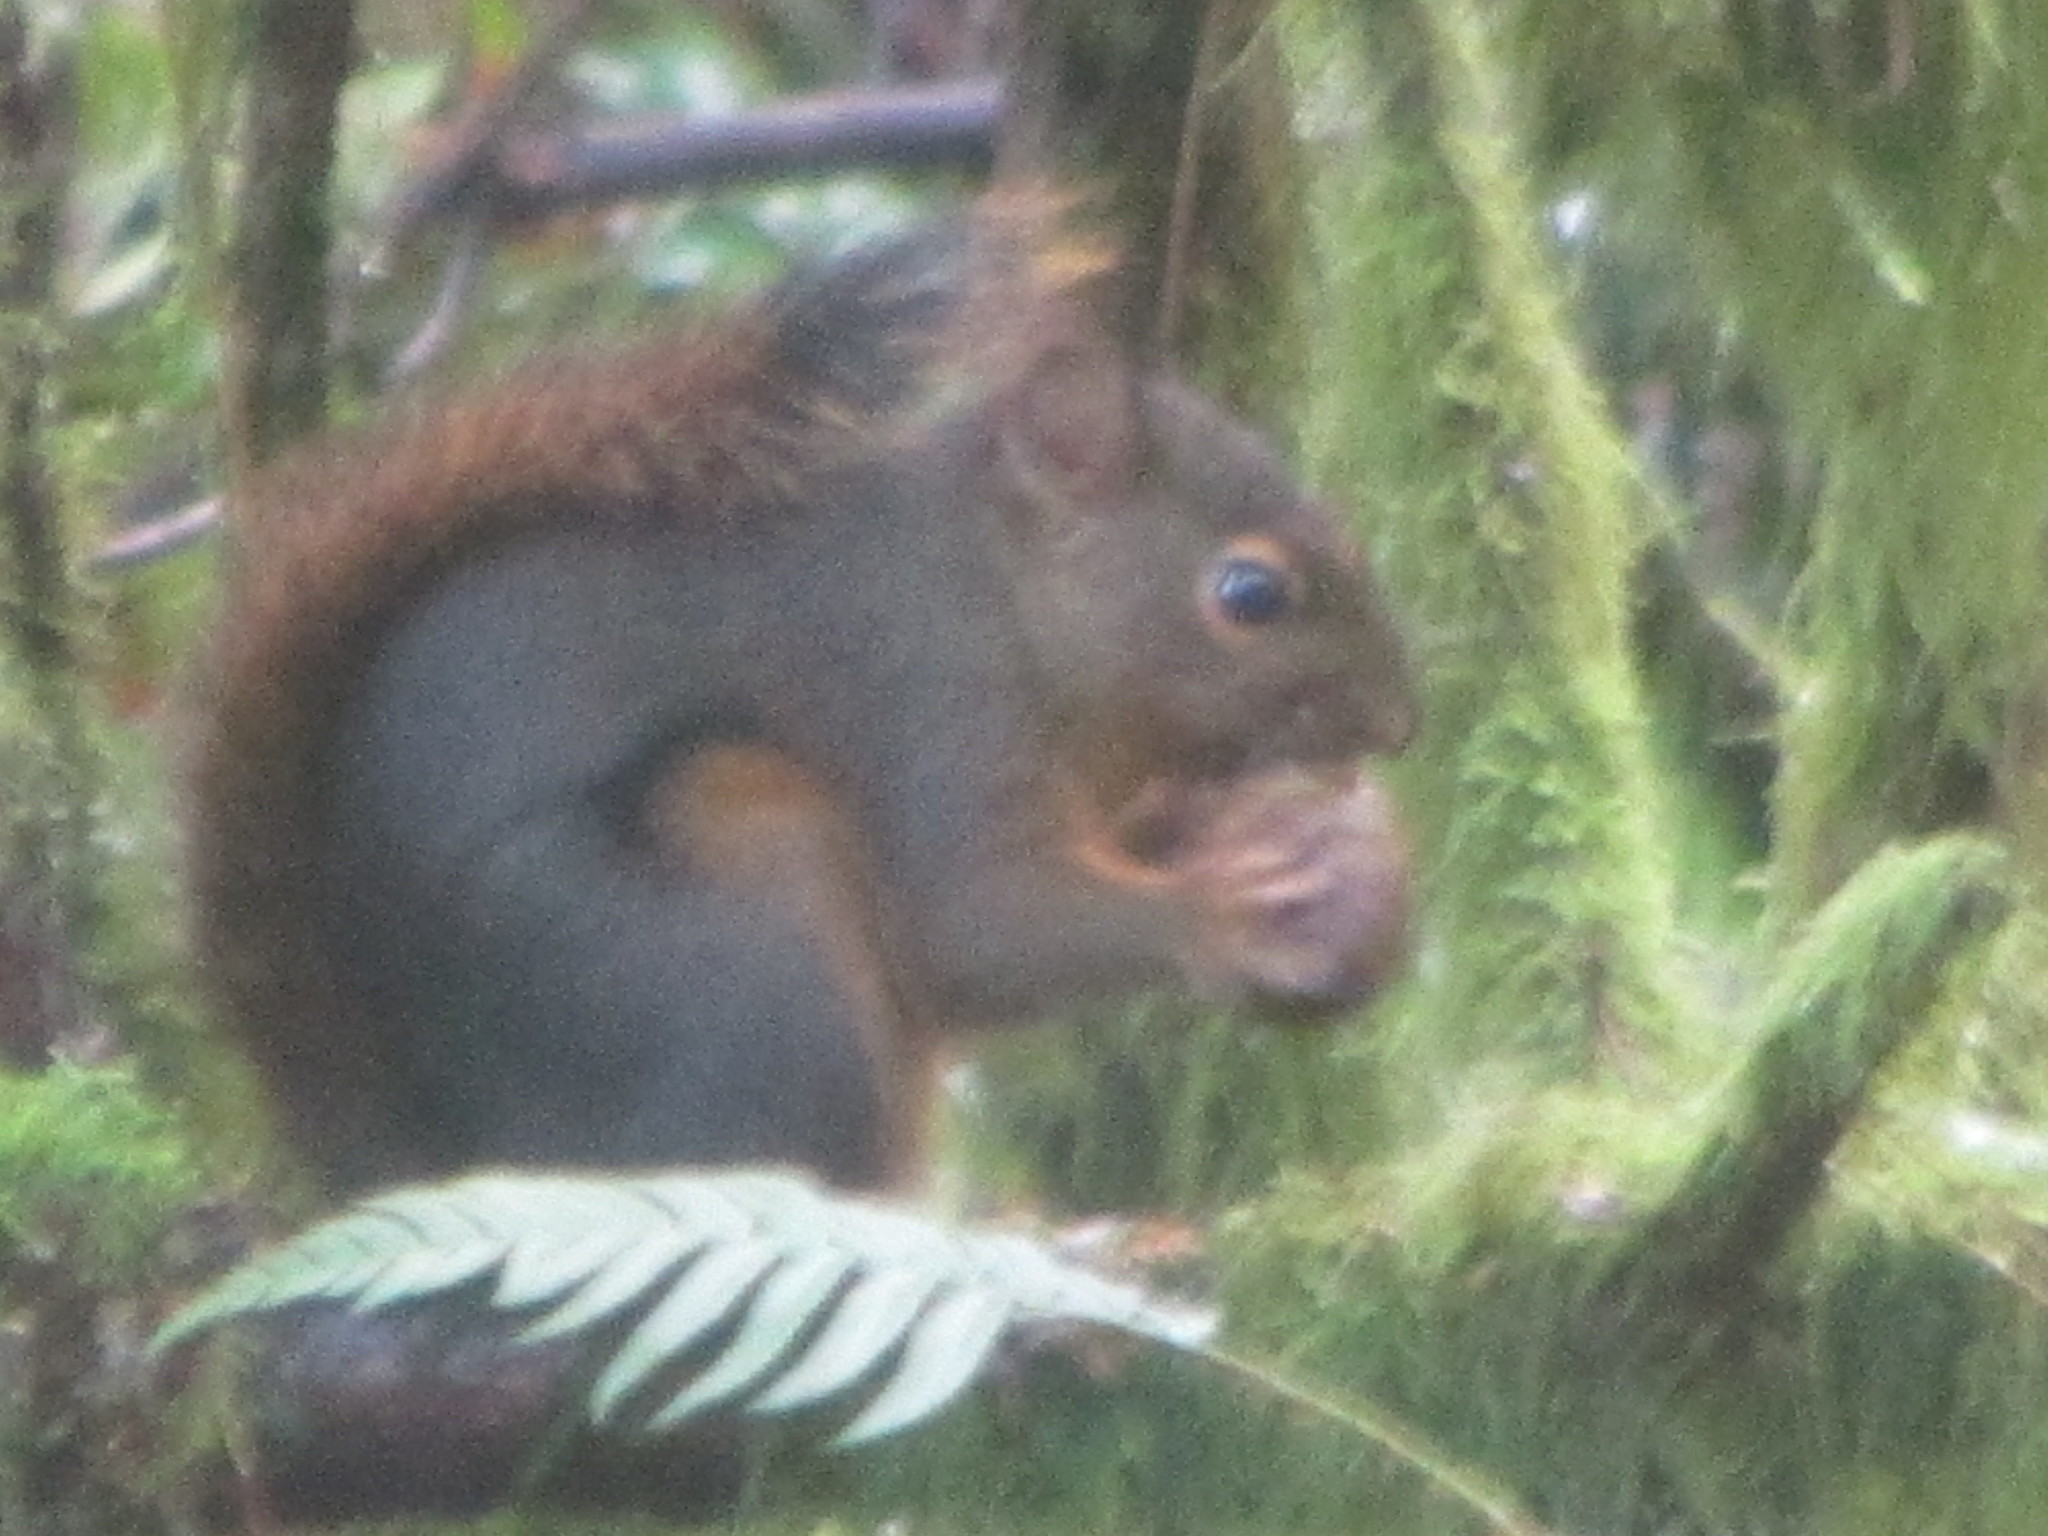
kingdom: Animalia
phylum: Chordata
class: Mammalia
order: Rodentia
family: Sciuridae
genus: Tamiasciurus
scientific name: Tamiasciurus douglasii
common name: Douglas's squirrel
